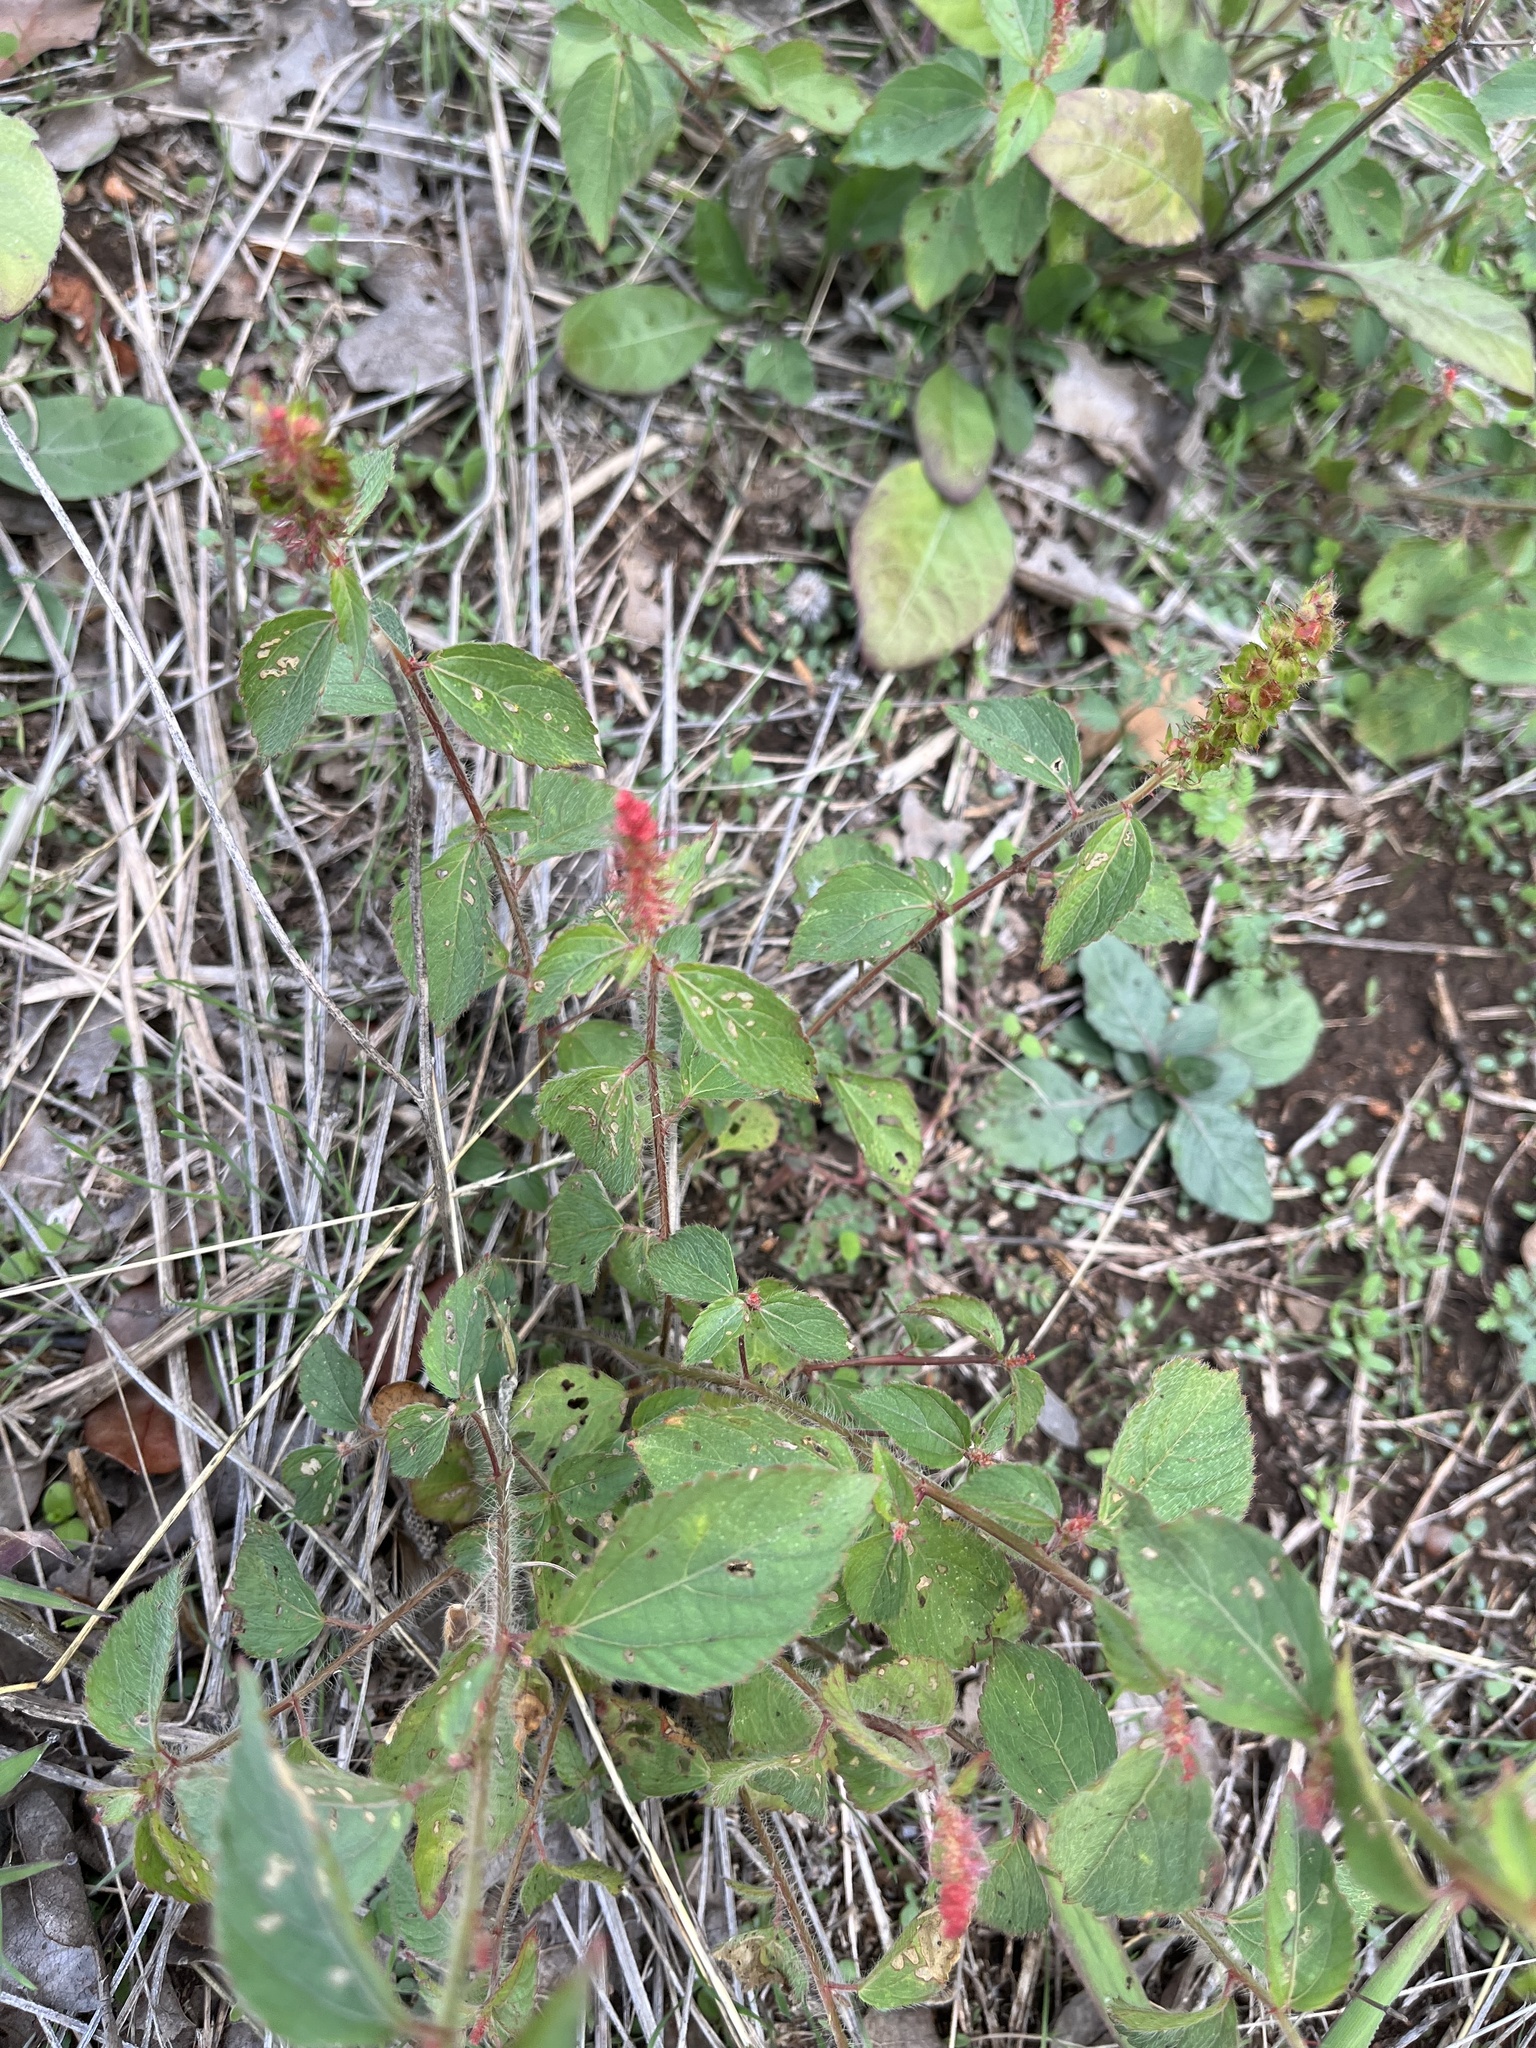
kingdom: Plantae
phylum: Tracheophyta
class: Magnoliopsida
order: Malpighiales
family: Euphorbiaceae
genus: Acalypha
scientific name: Acalypha phleoides
